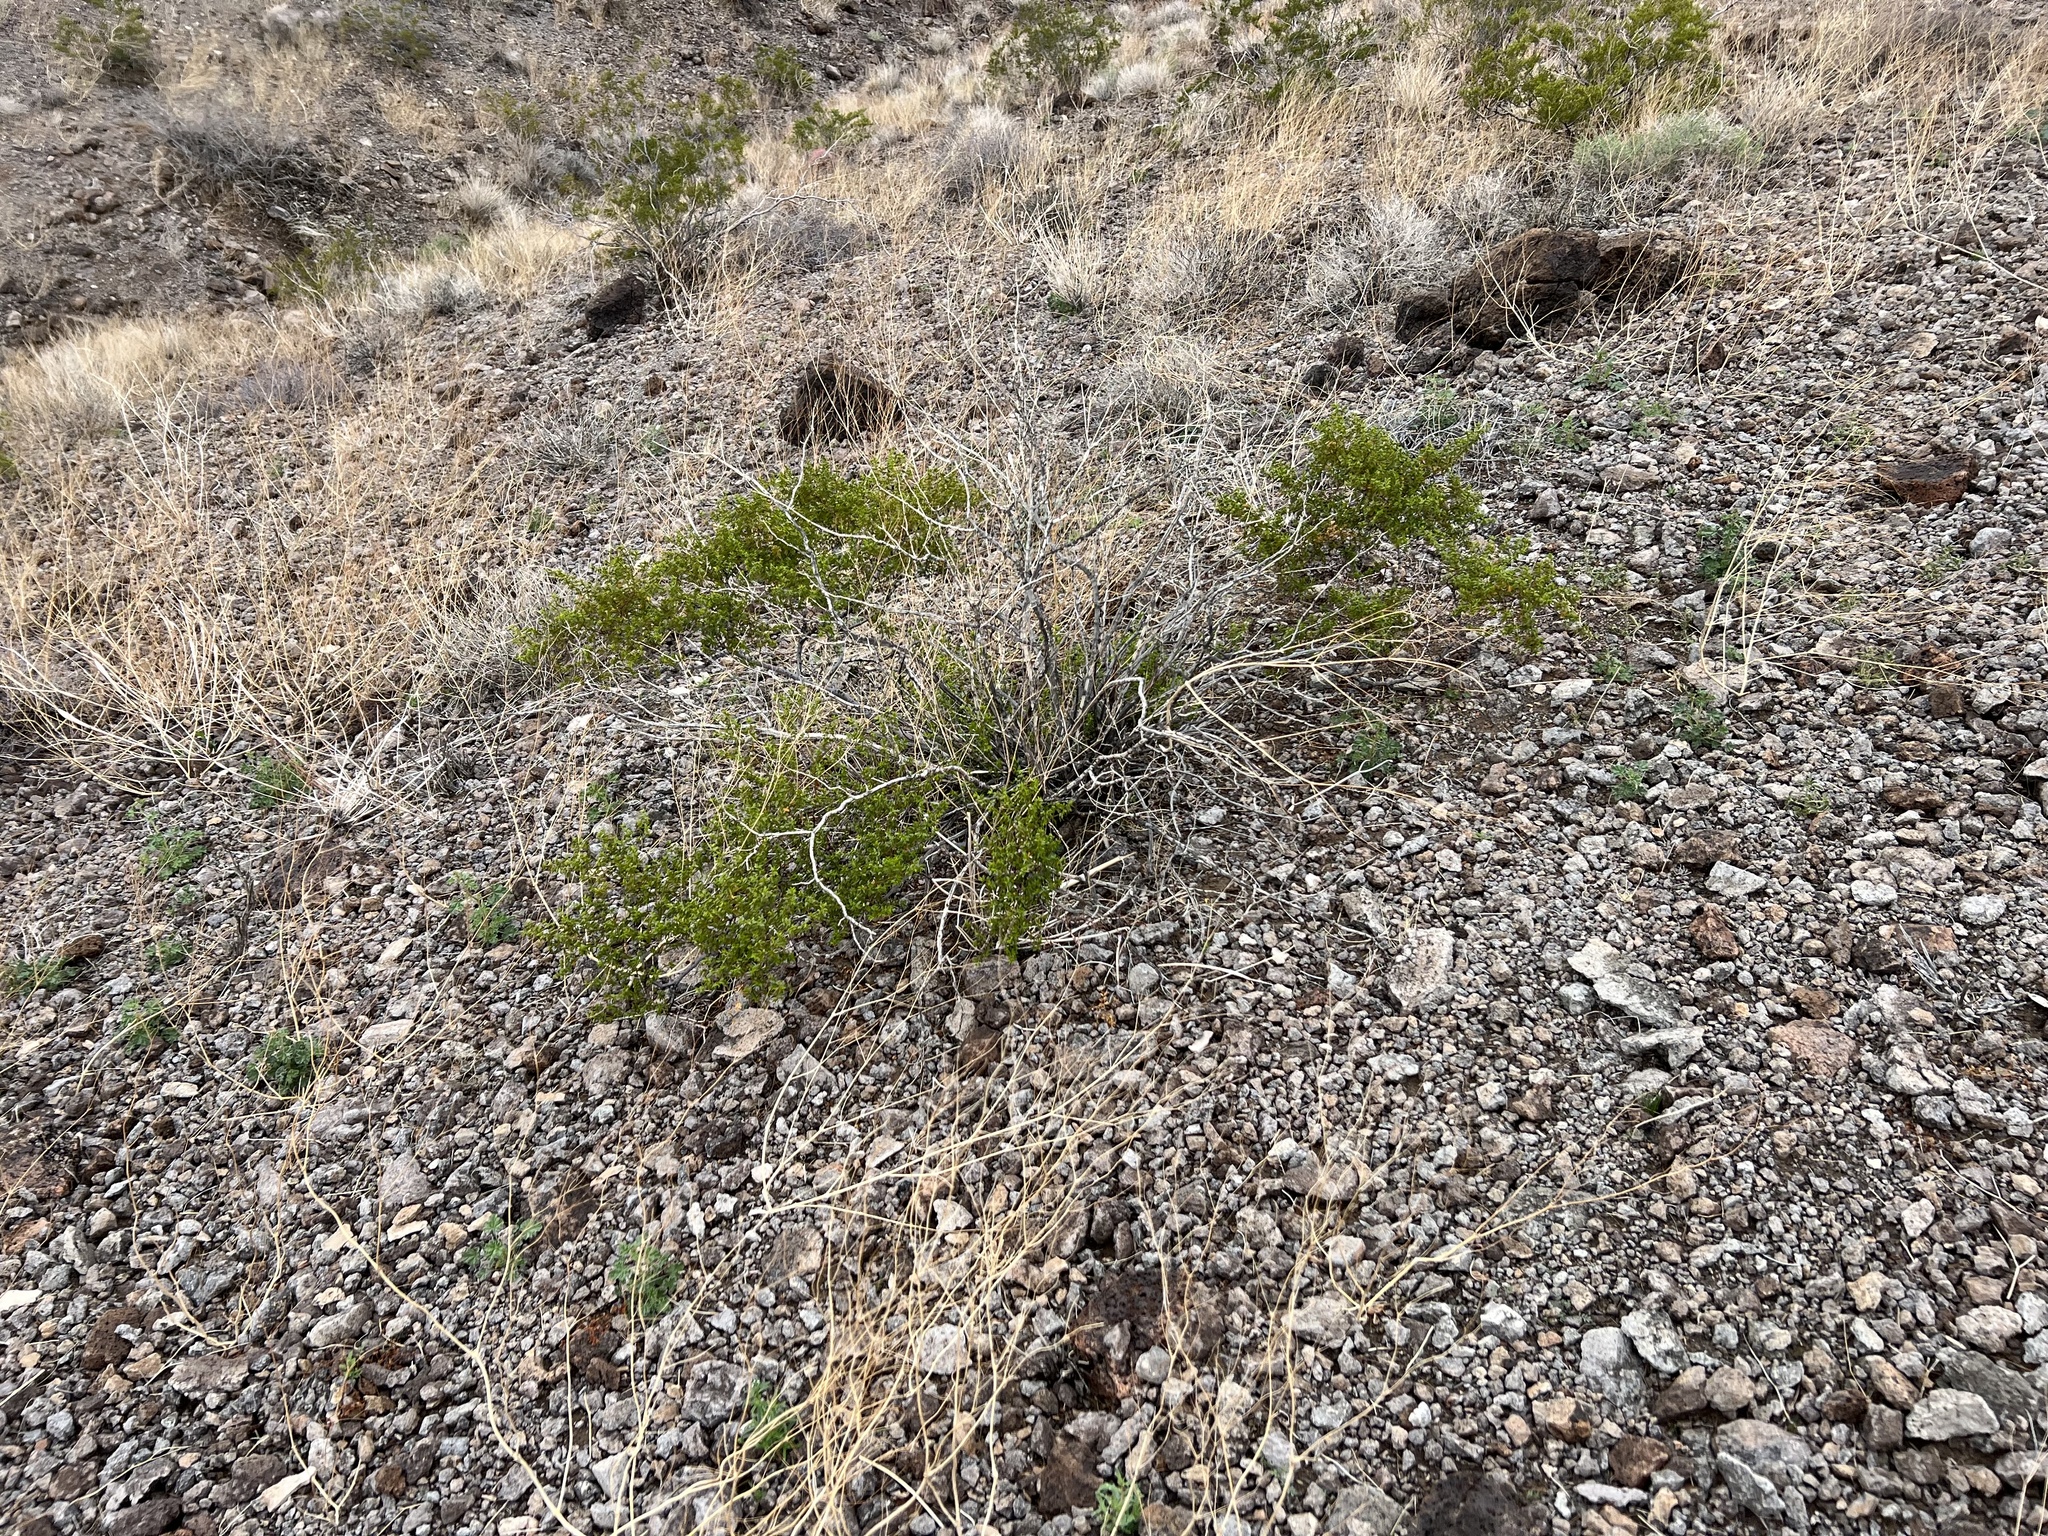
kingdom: Plantae
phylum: Tracheophyta
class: Magnoliopsida
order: Zygophyllales
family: Zygophyllaceae
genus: Larrea
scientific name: Larrea tridentata
